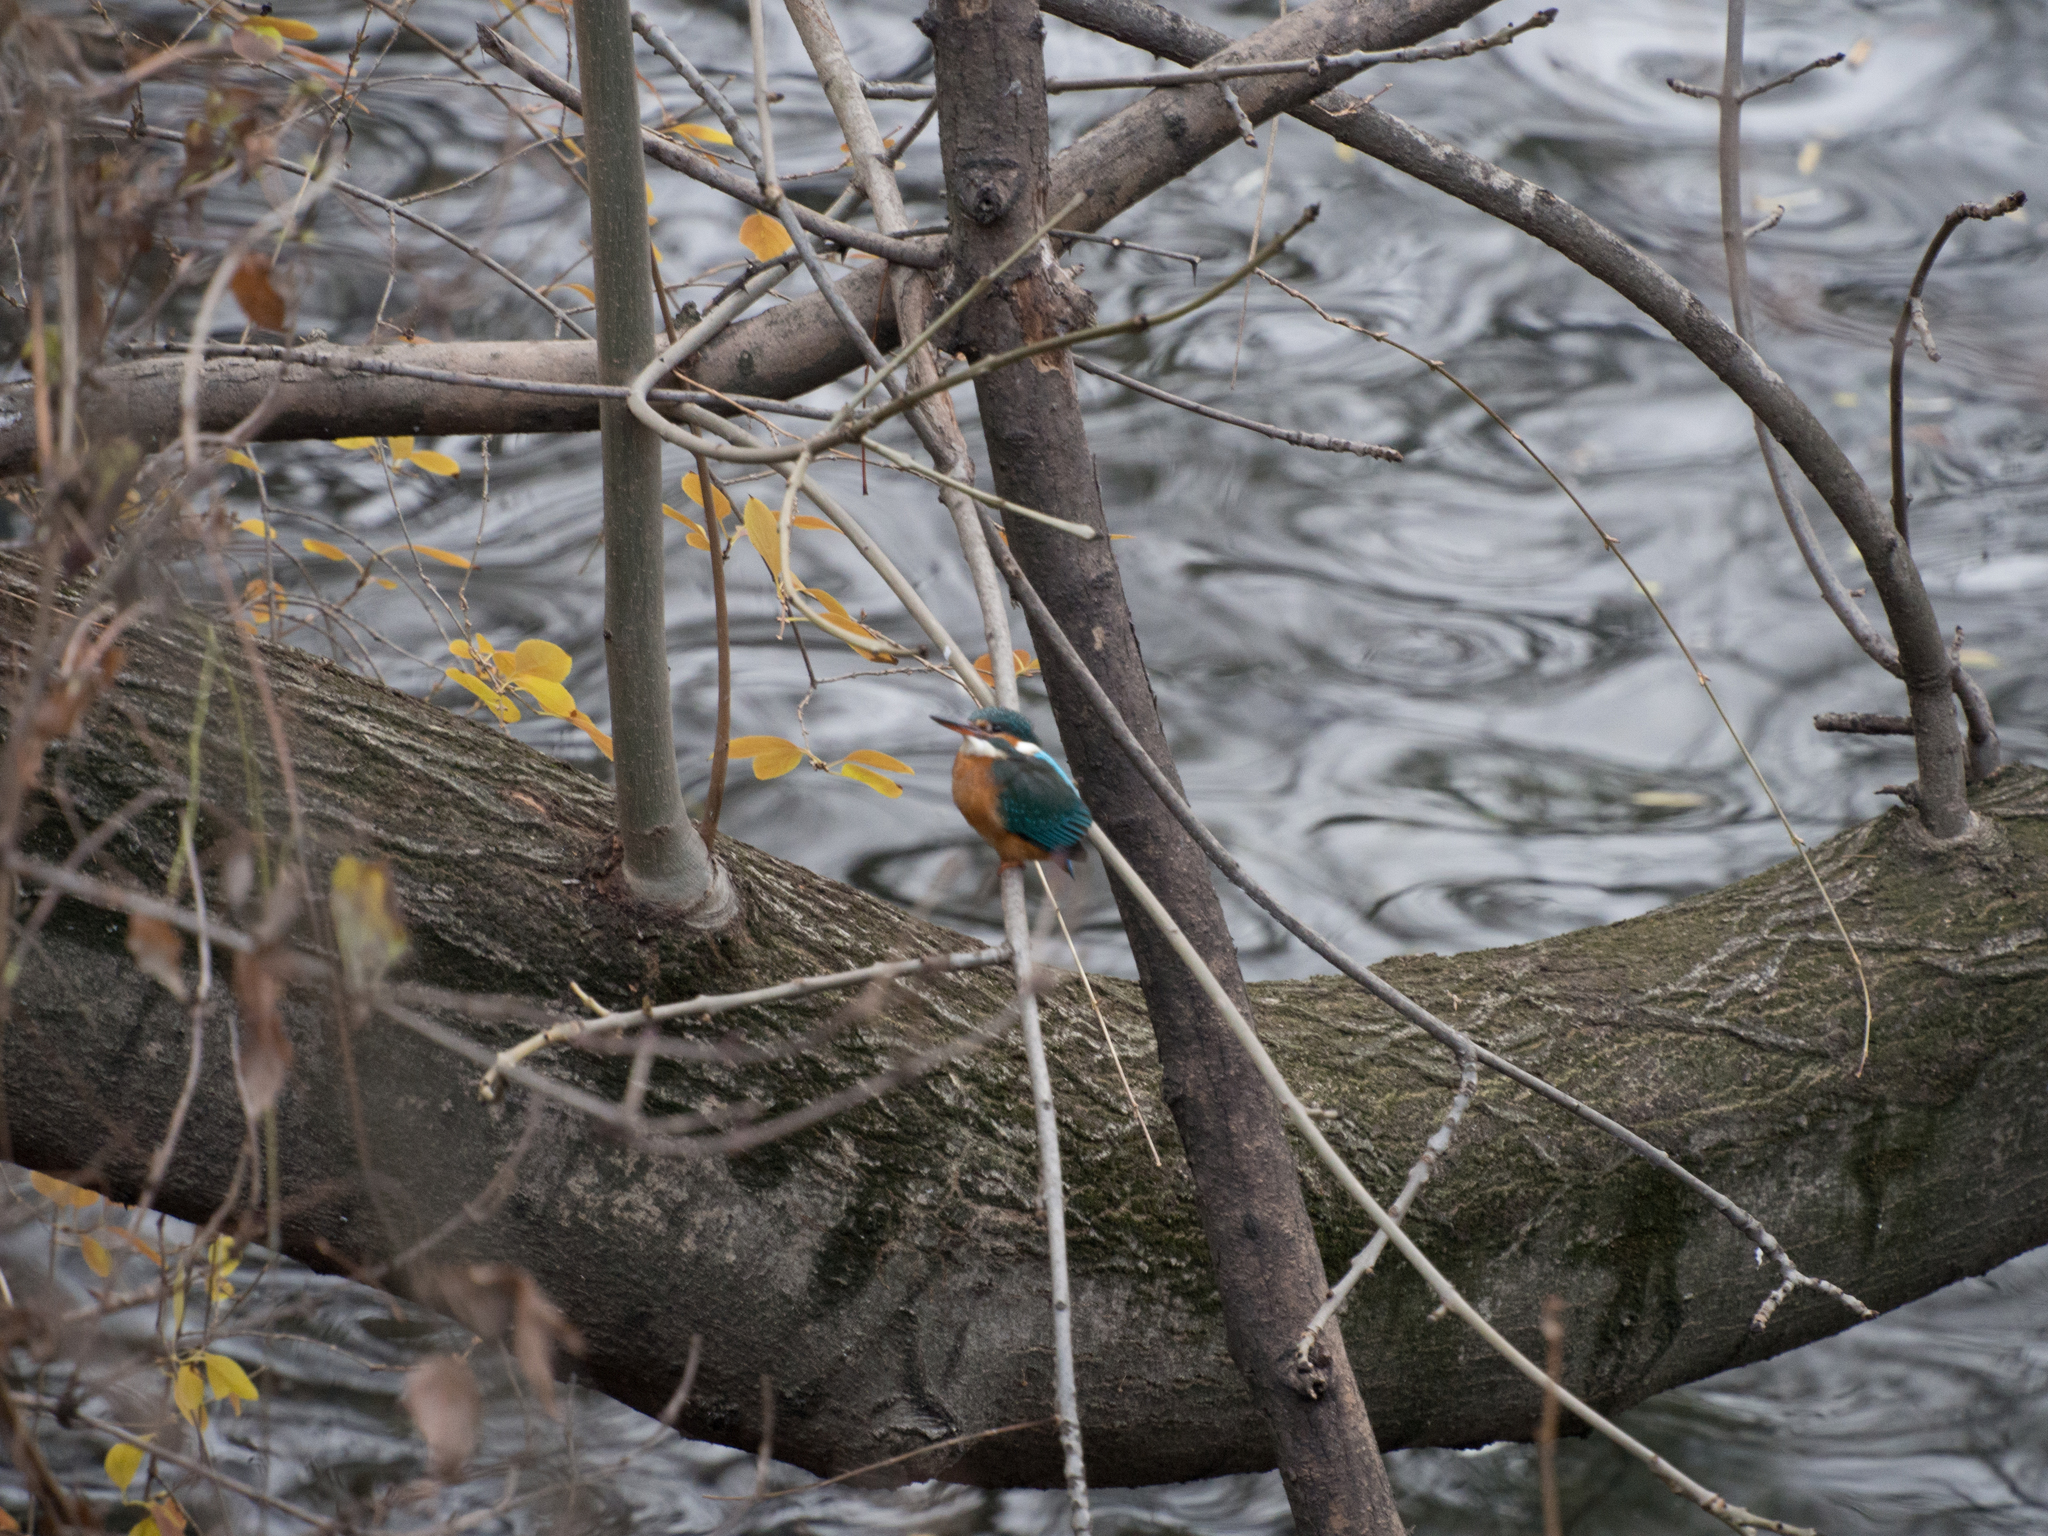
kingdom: Animalia
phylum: Chordata
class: Aves
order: Coraciiformes
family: Alcedinidae
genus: Alcedo
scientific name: Alcedo atthis
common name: Common kingfisher
